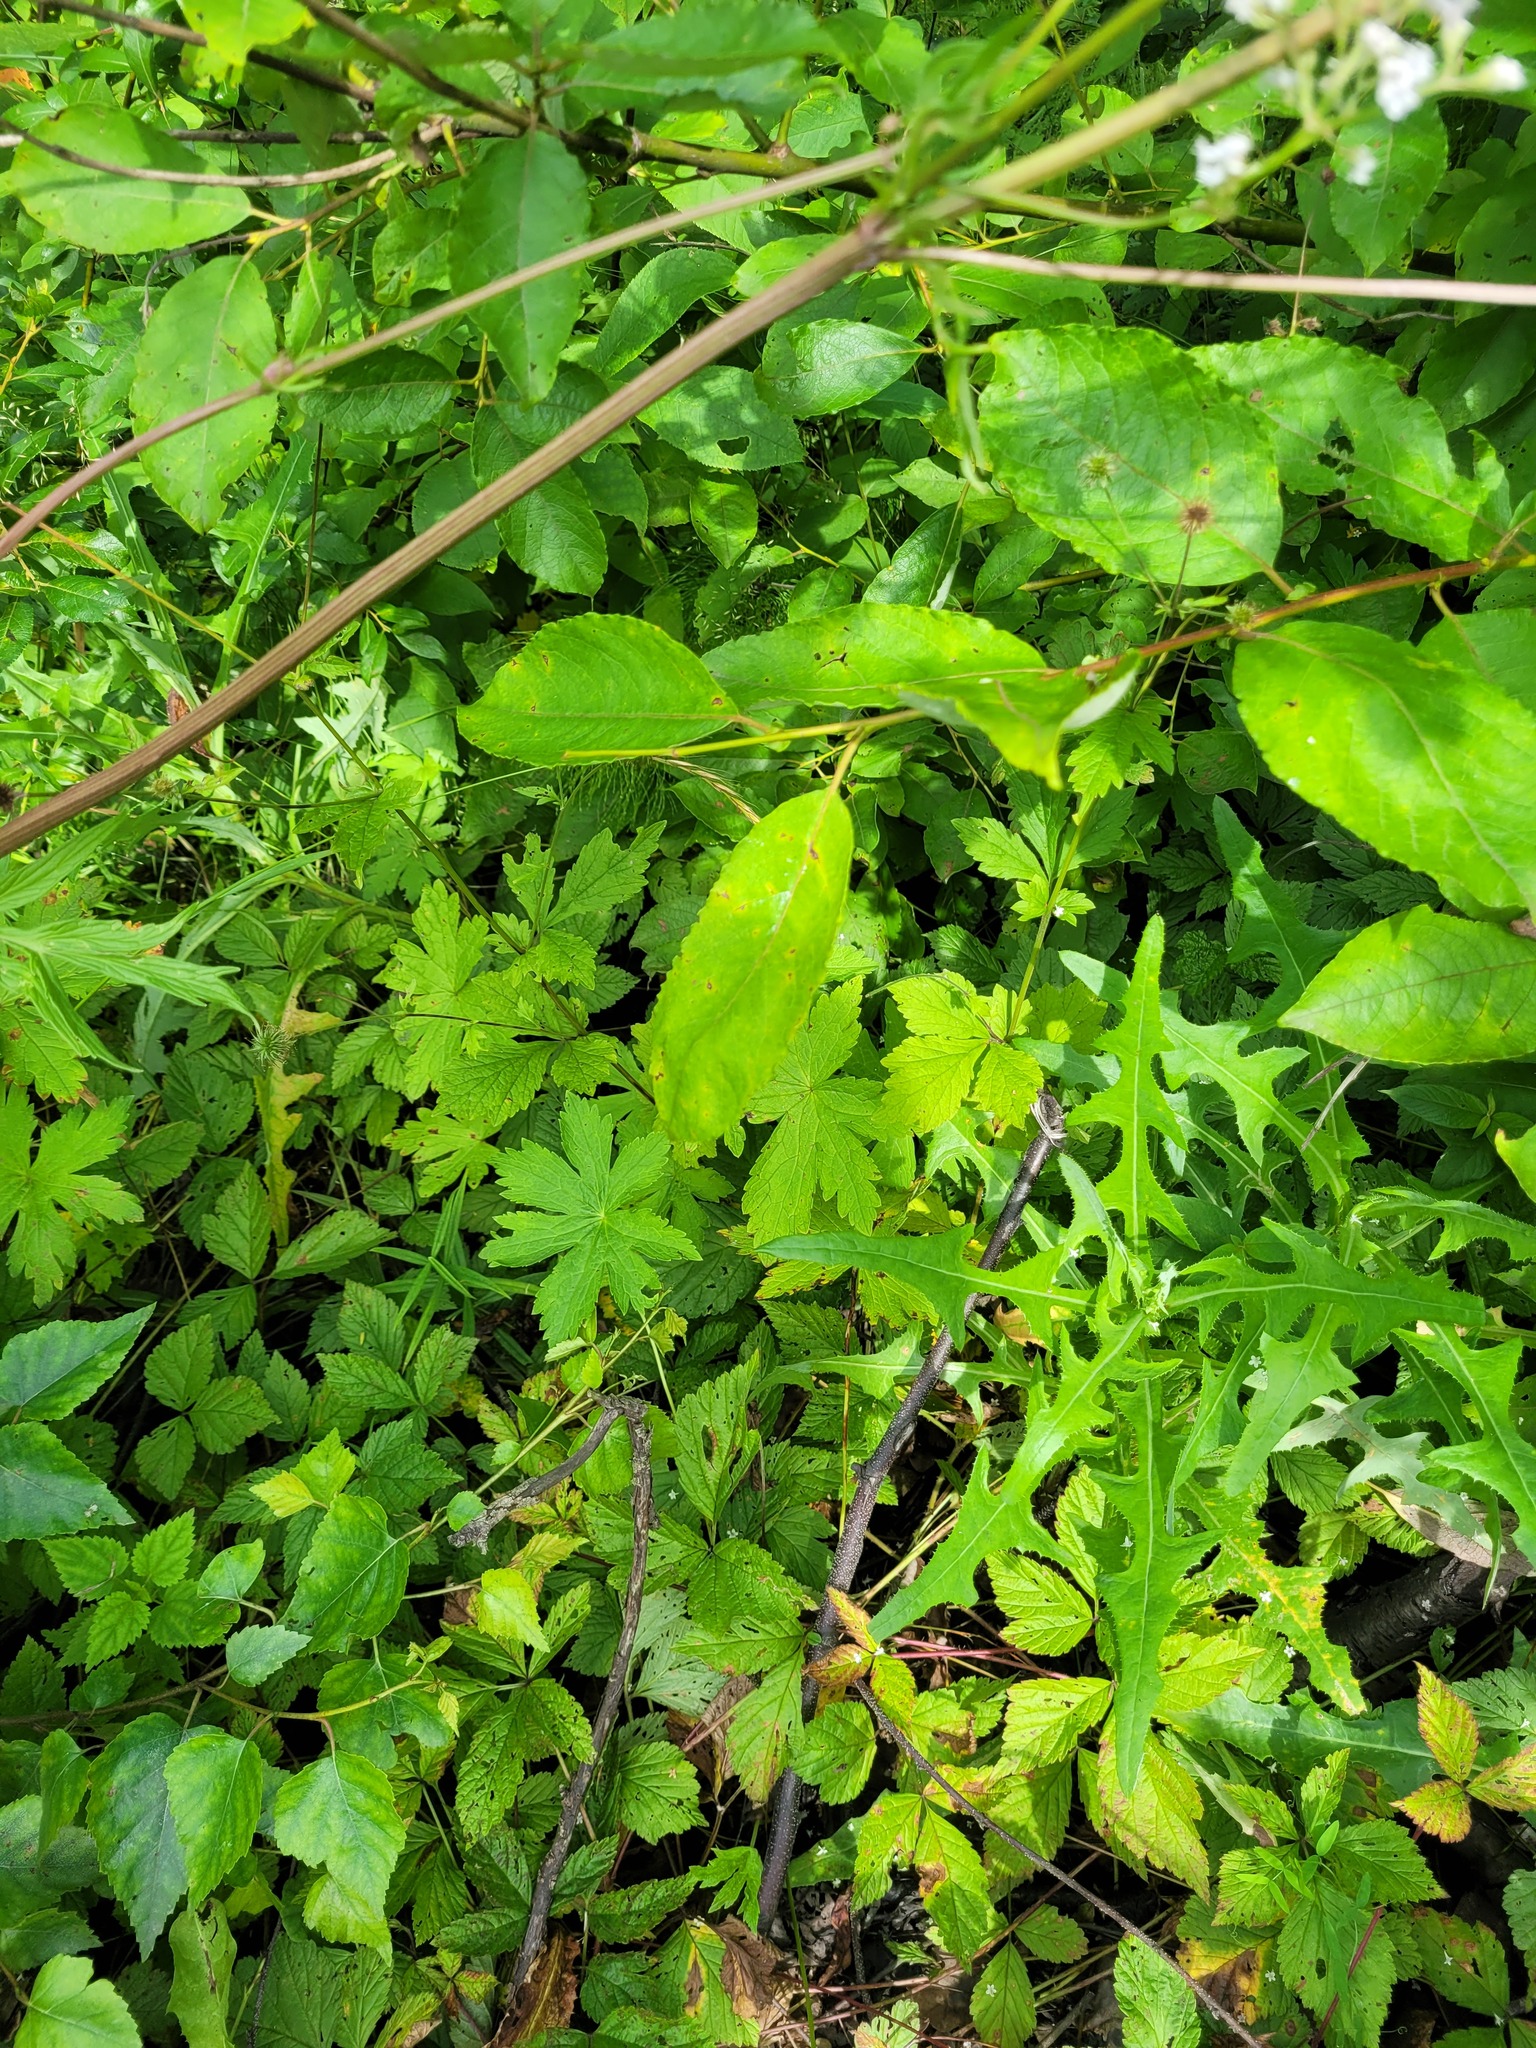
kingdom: Plantae
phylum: Tracheophyta
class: Magnoliopsida
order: Rosales
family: Rosaceae
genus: Geum
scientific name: Geum urbanum
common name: Wood avens
